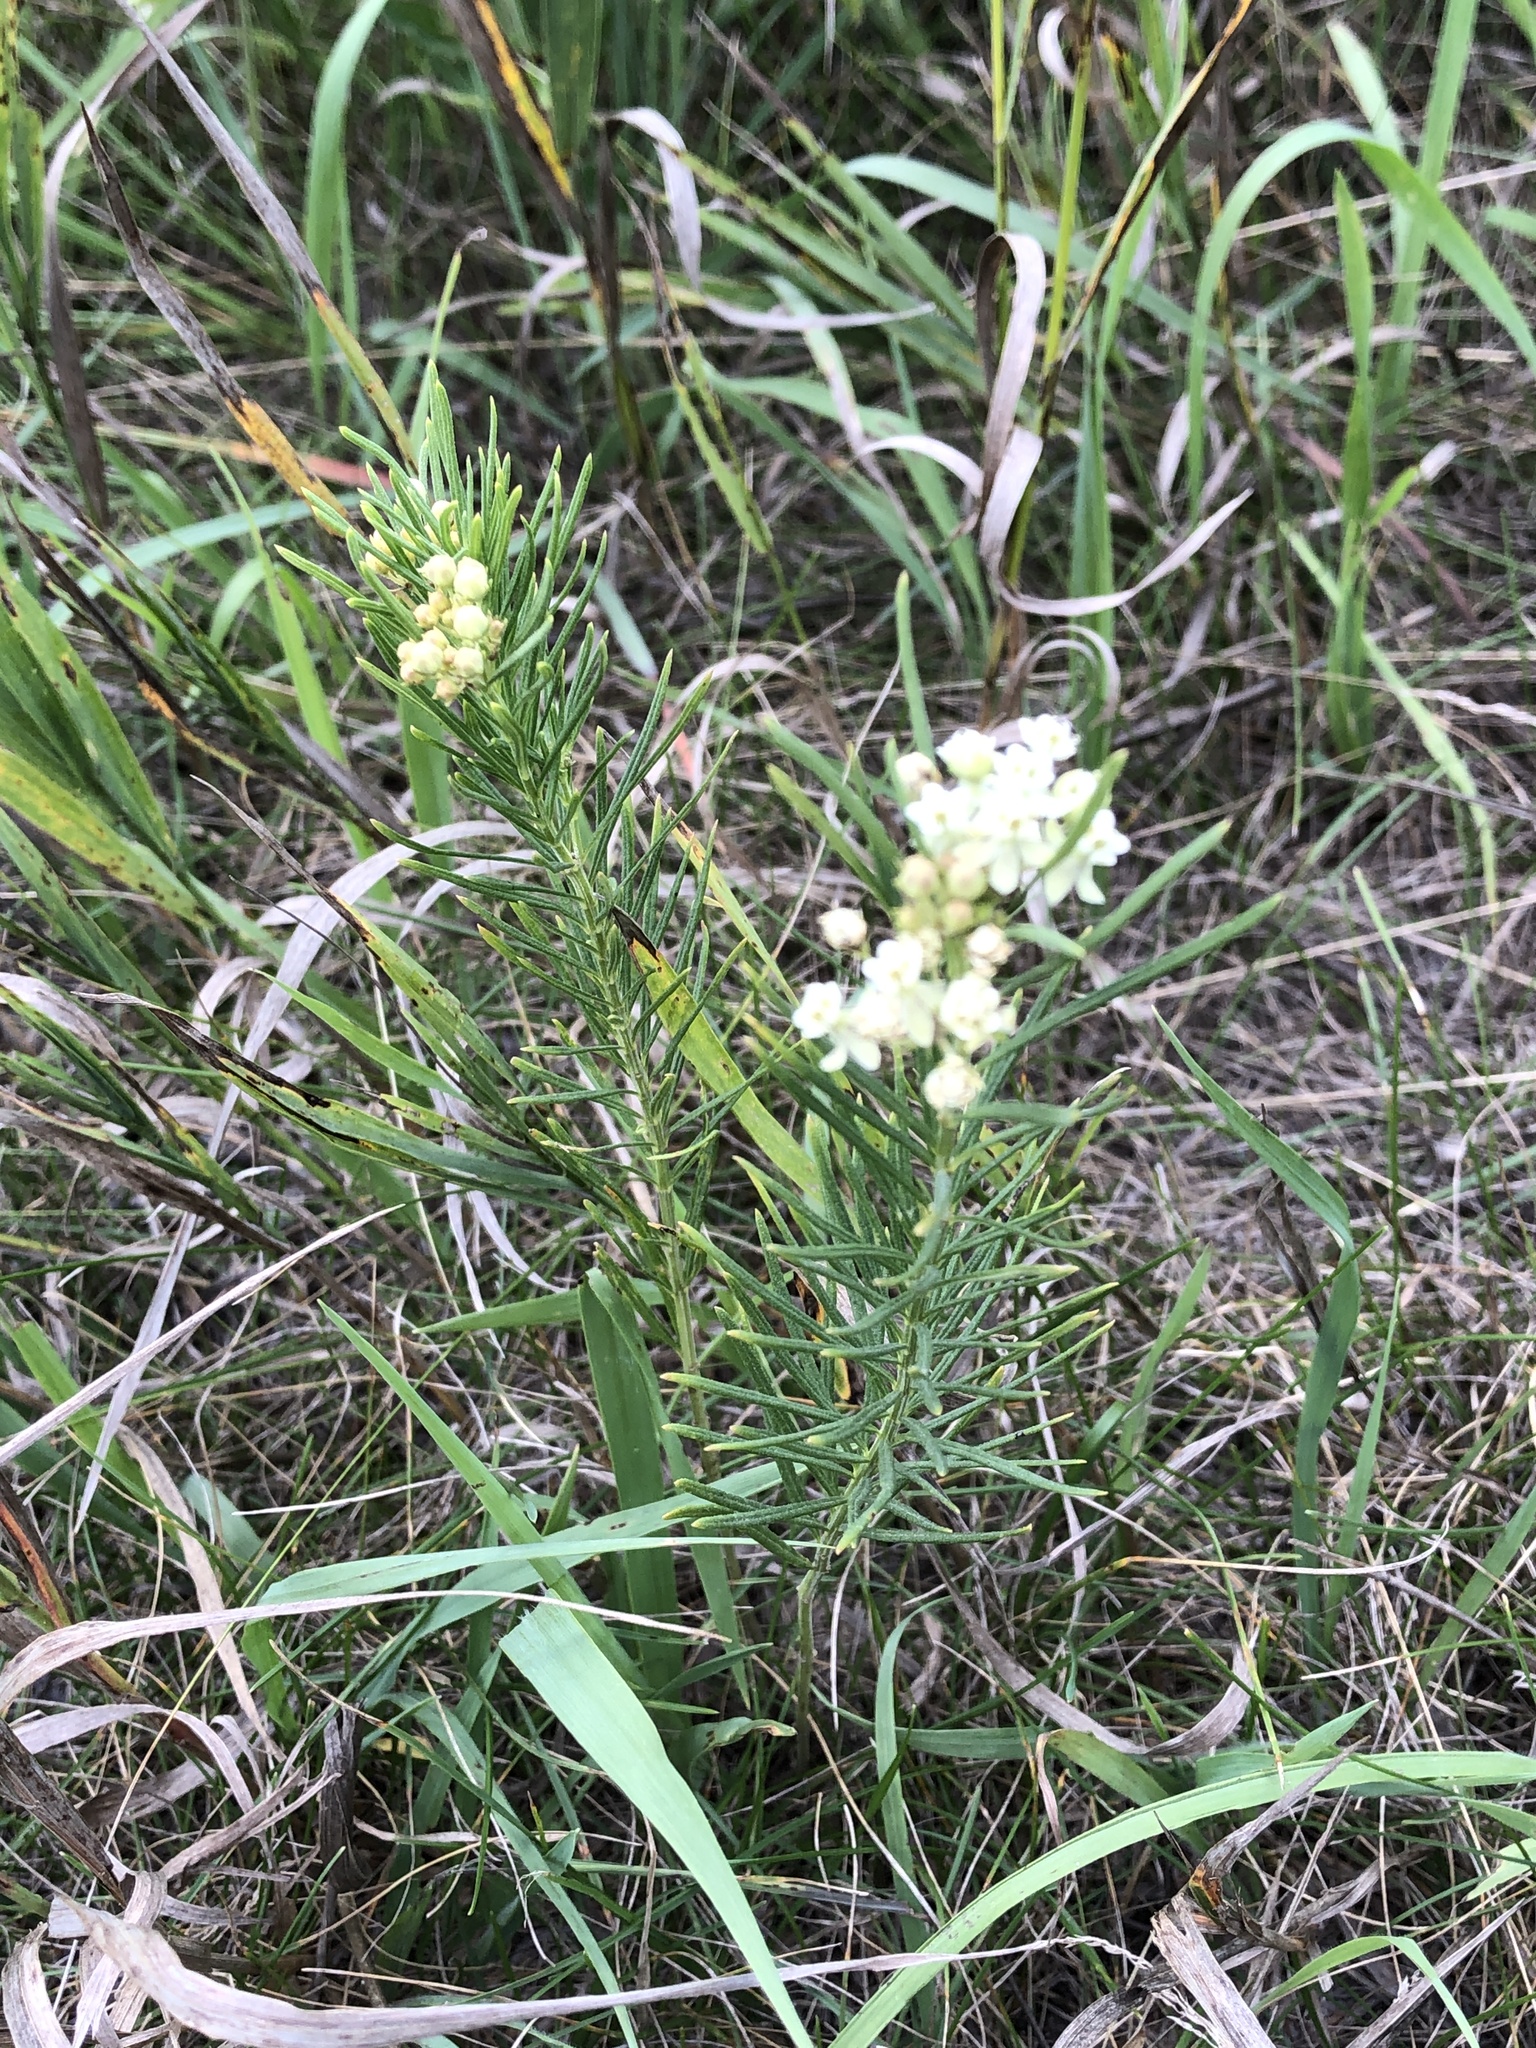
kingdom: Plantae
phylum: Tracheophyta
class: Magnoliopsida
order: Gentianales
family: Apocynaceae
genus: Asclepias
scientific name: Asclepias verticillata
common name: Eastern whorled milkweed
